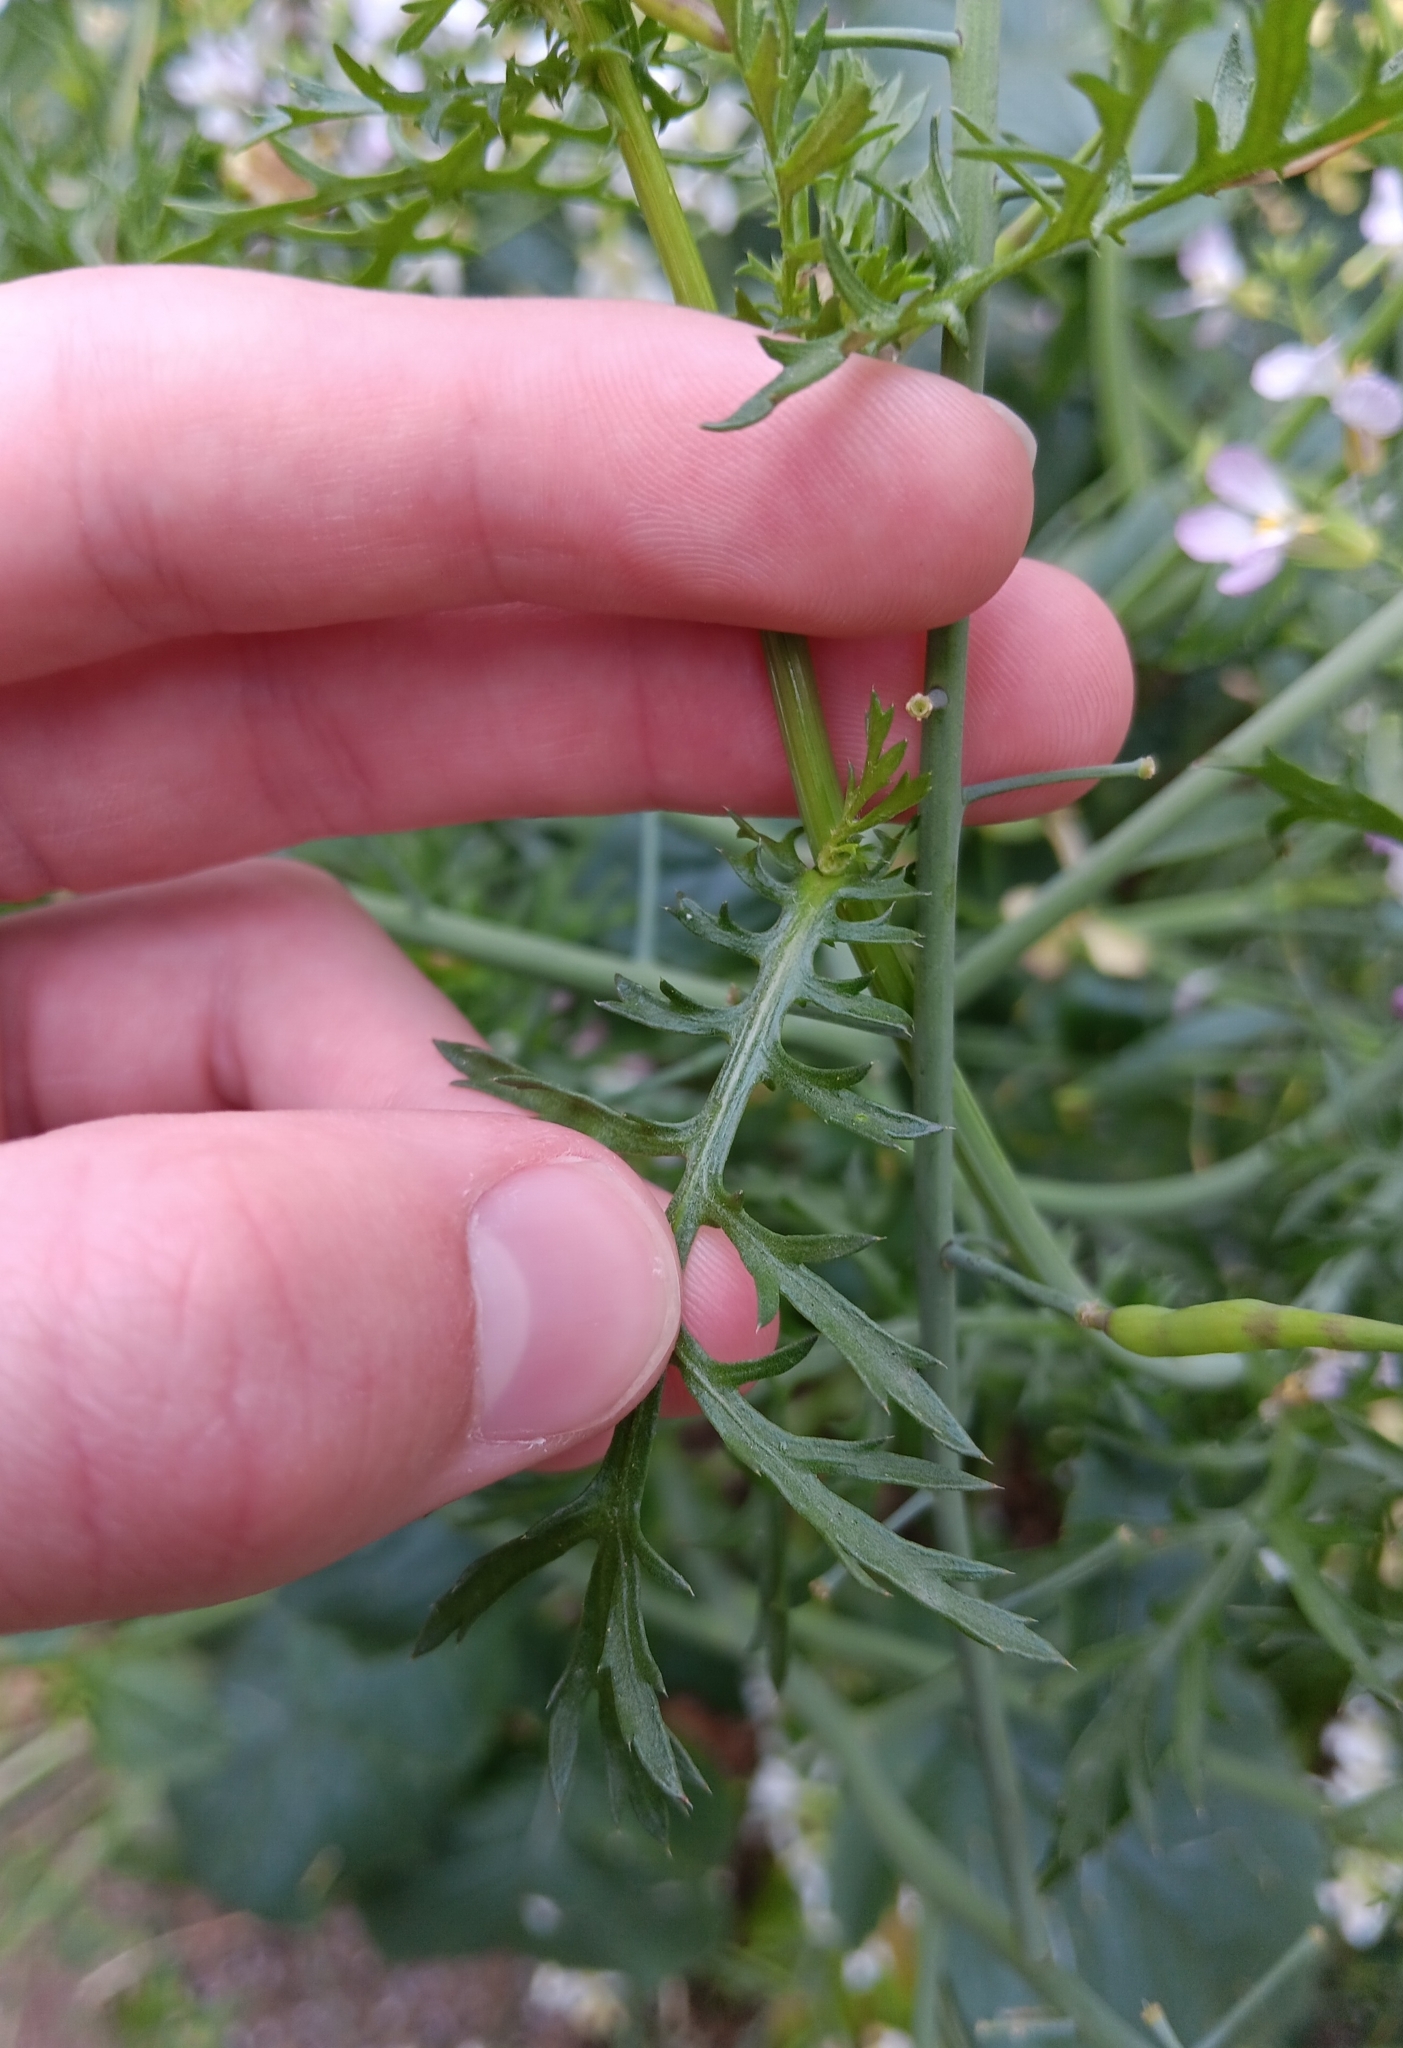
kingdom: Plantae
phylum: Tracheophyta
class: Magnoliopsida
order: Asterales
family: Asteraceae
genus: Glebionis
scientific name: Glebionis coronaria
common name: Crowndaisy
